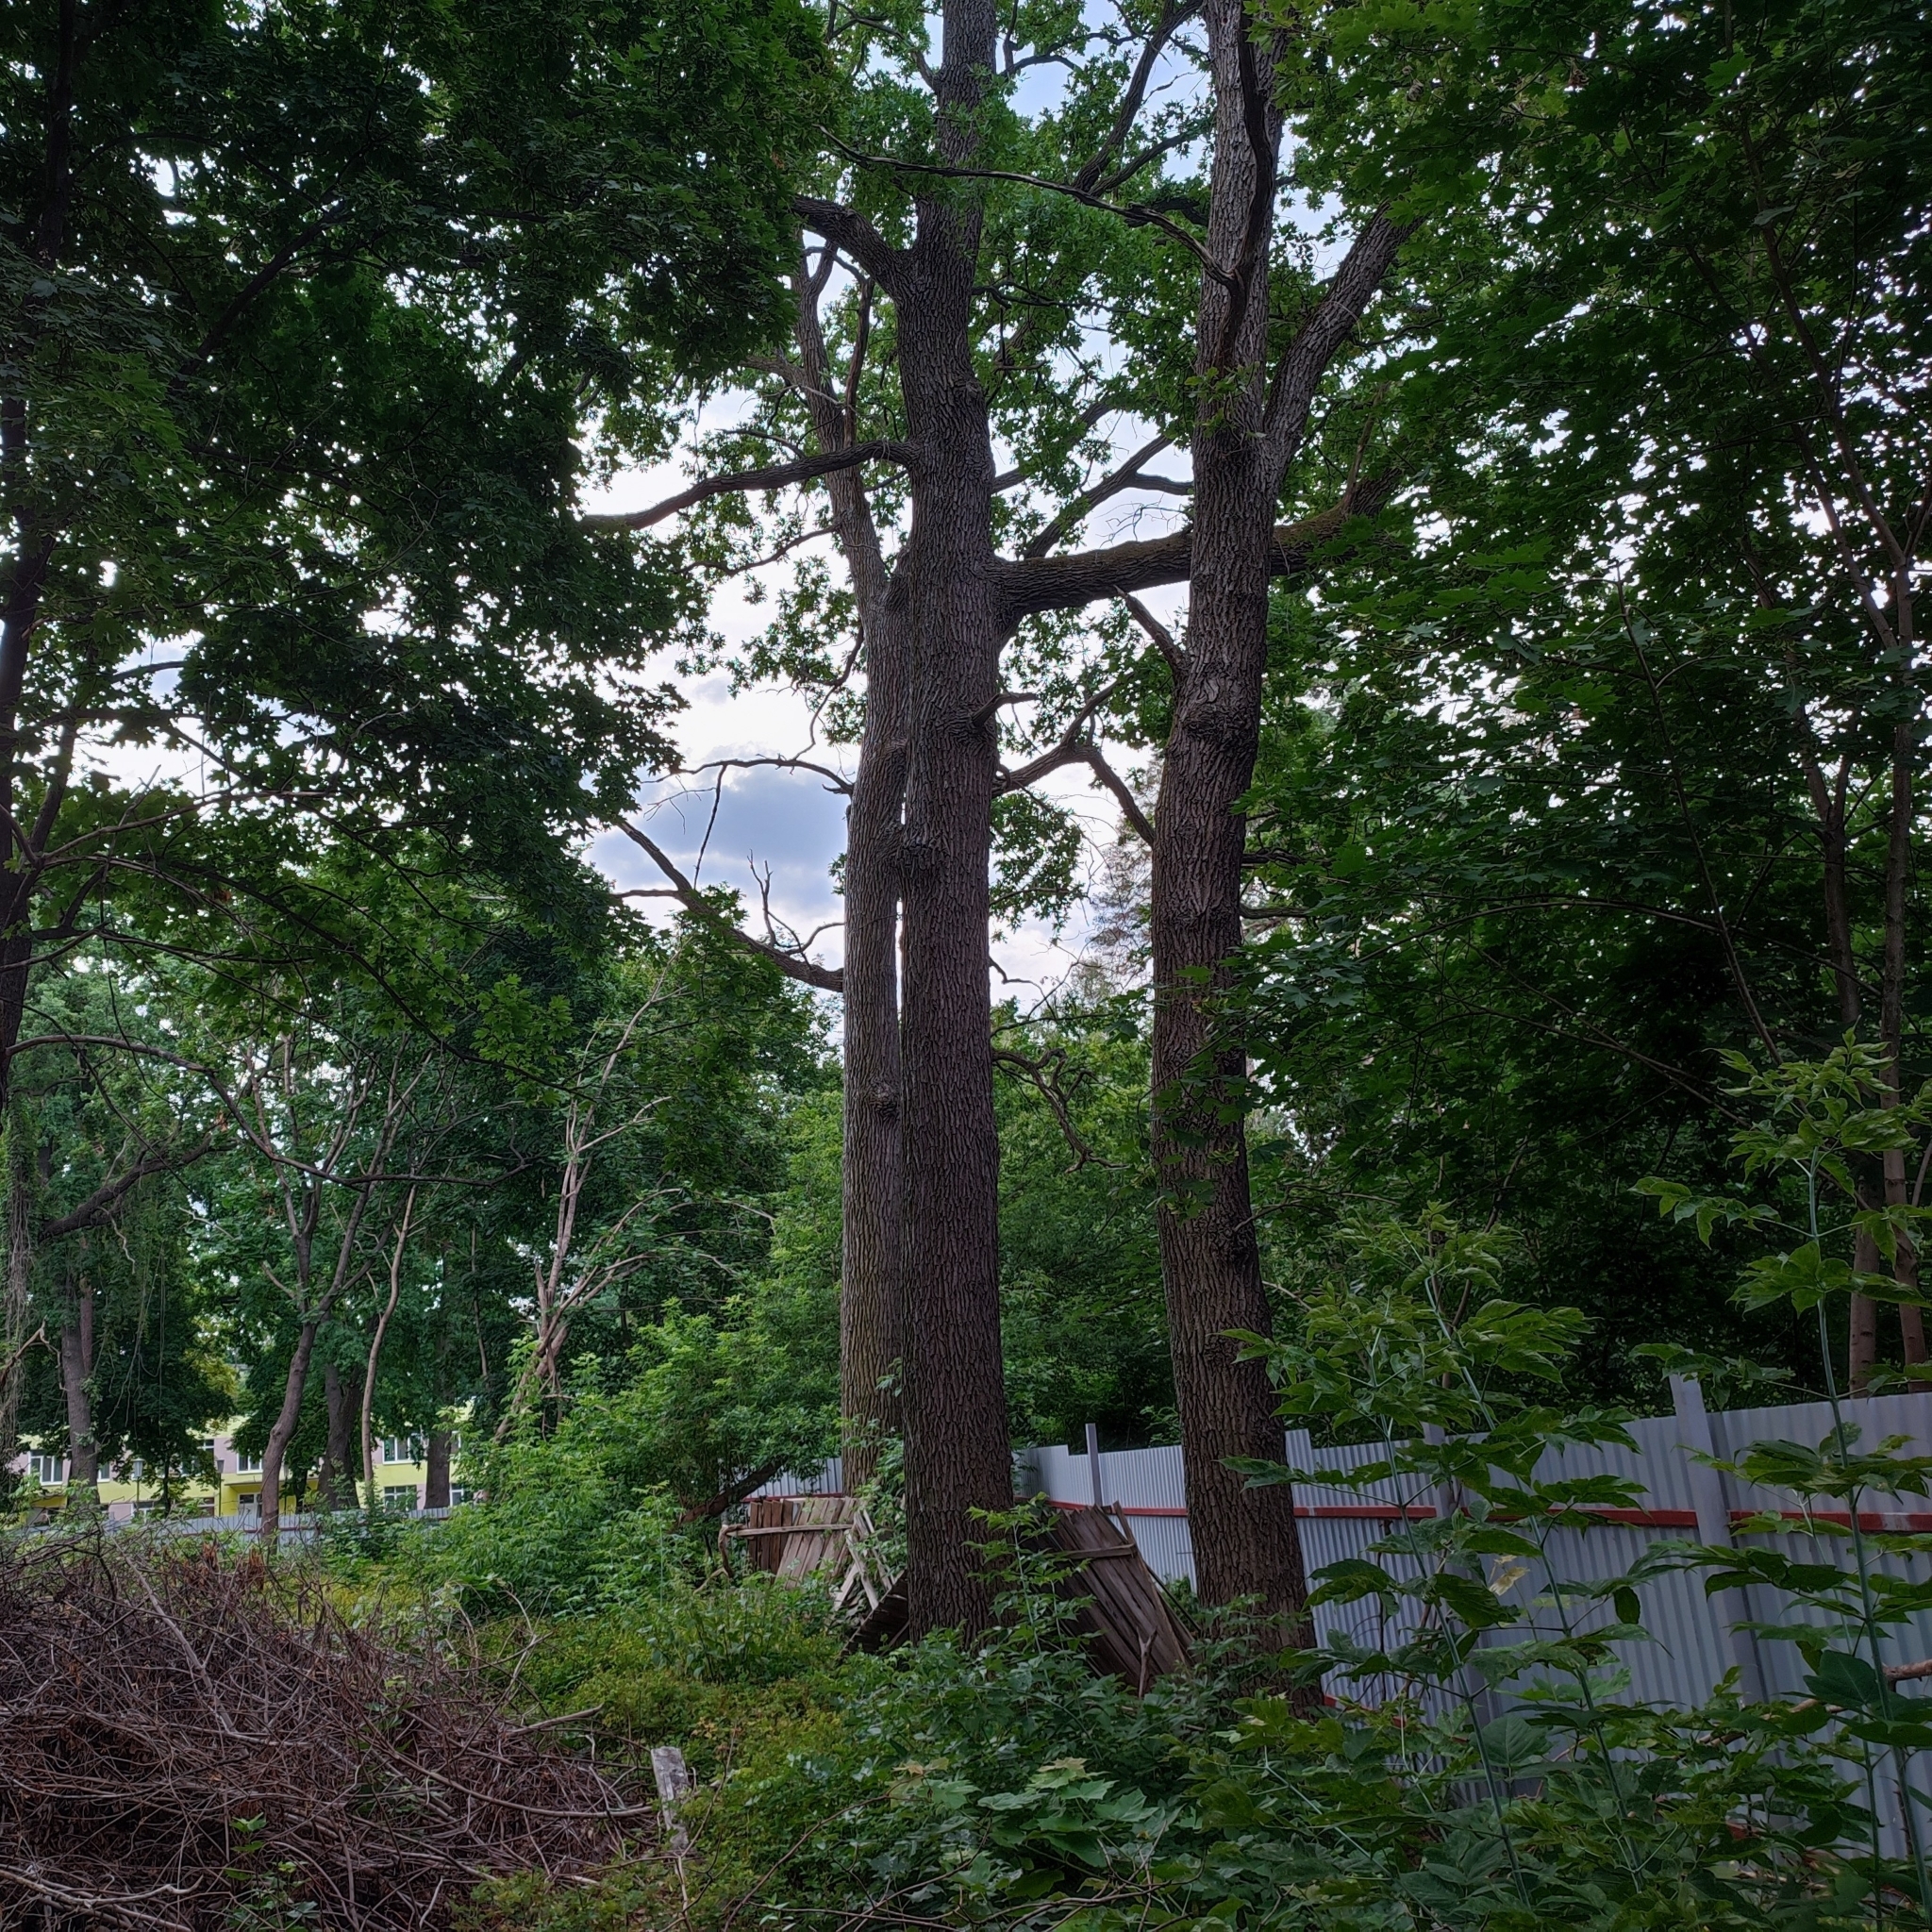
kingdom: Plantae
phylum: Tracheophyta
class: Magnoliopsida
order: Fagales
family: Fagaceae
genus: Quercus
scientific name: Quercus robur
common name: Pedunculate oak
